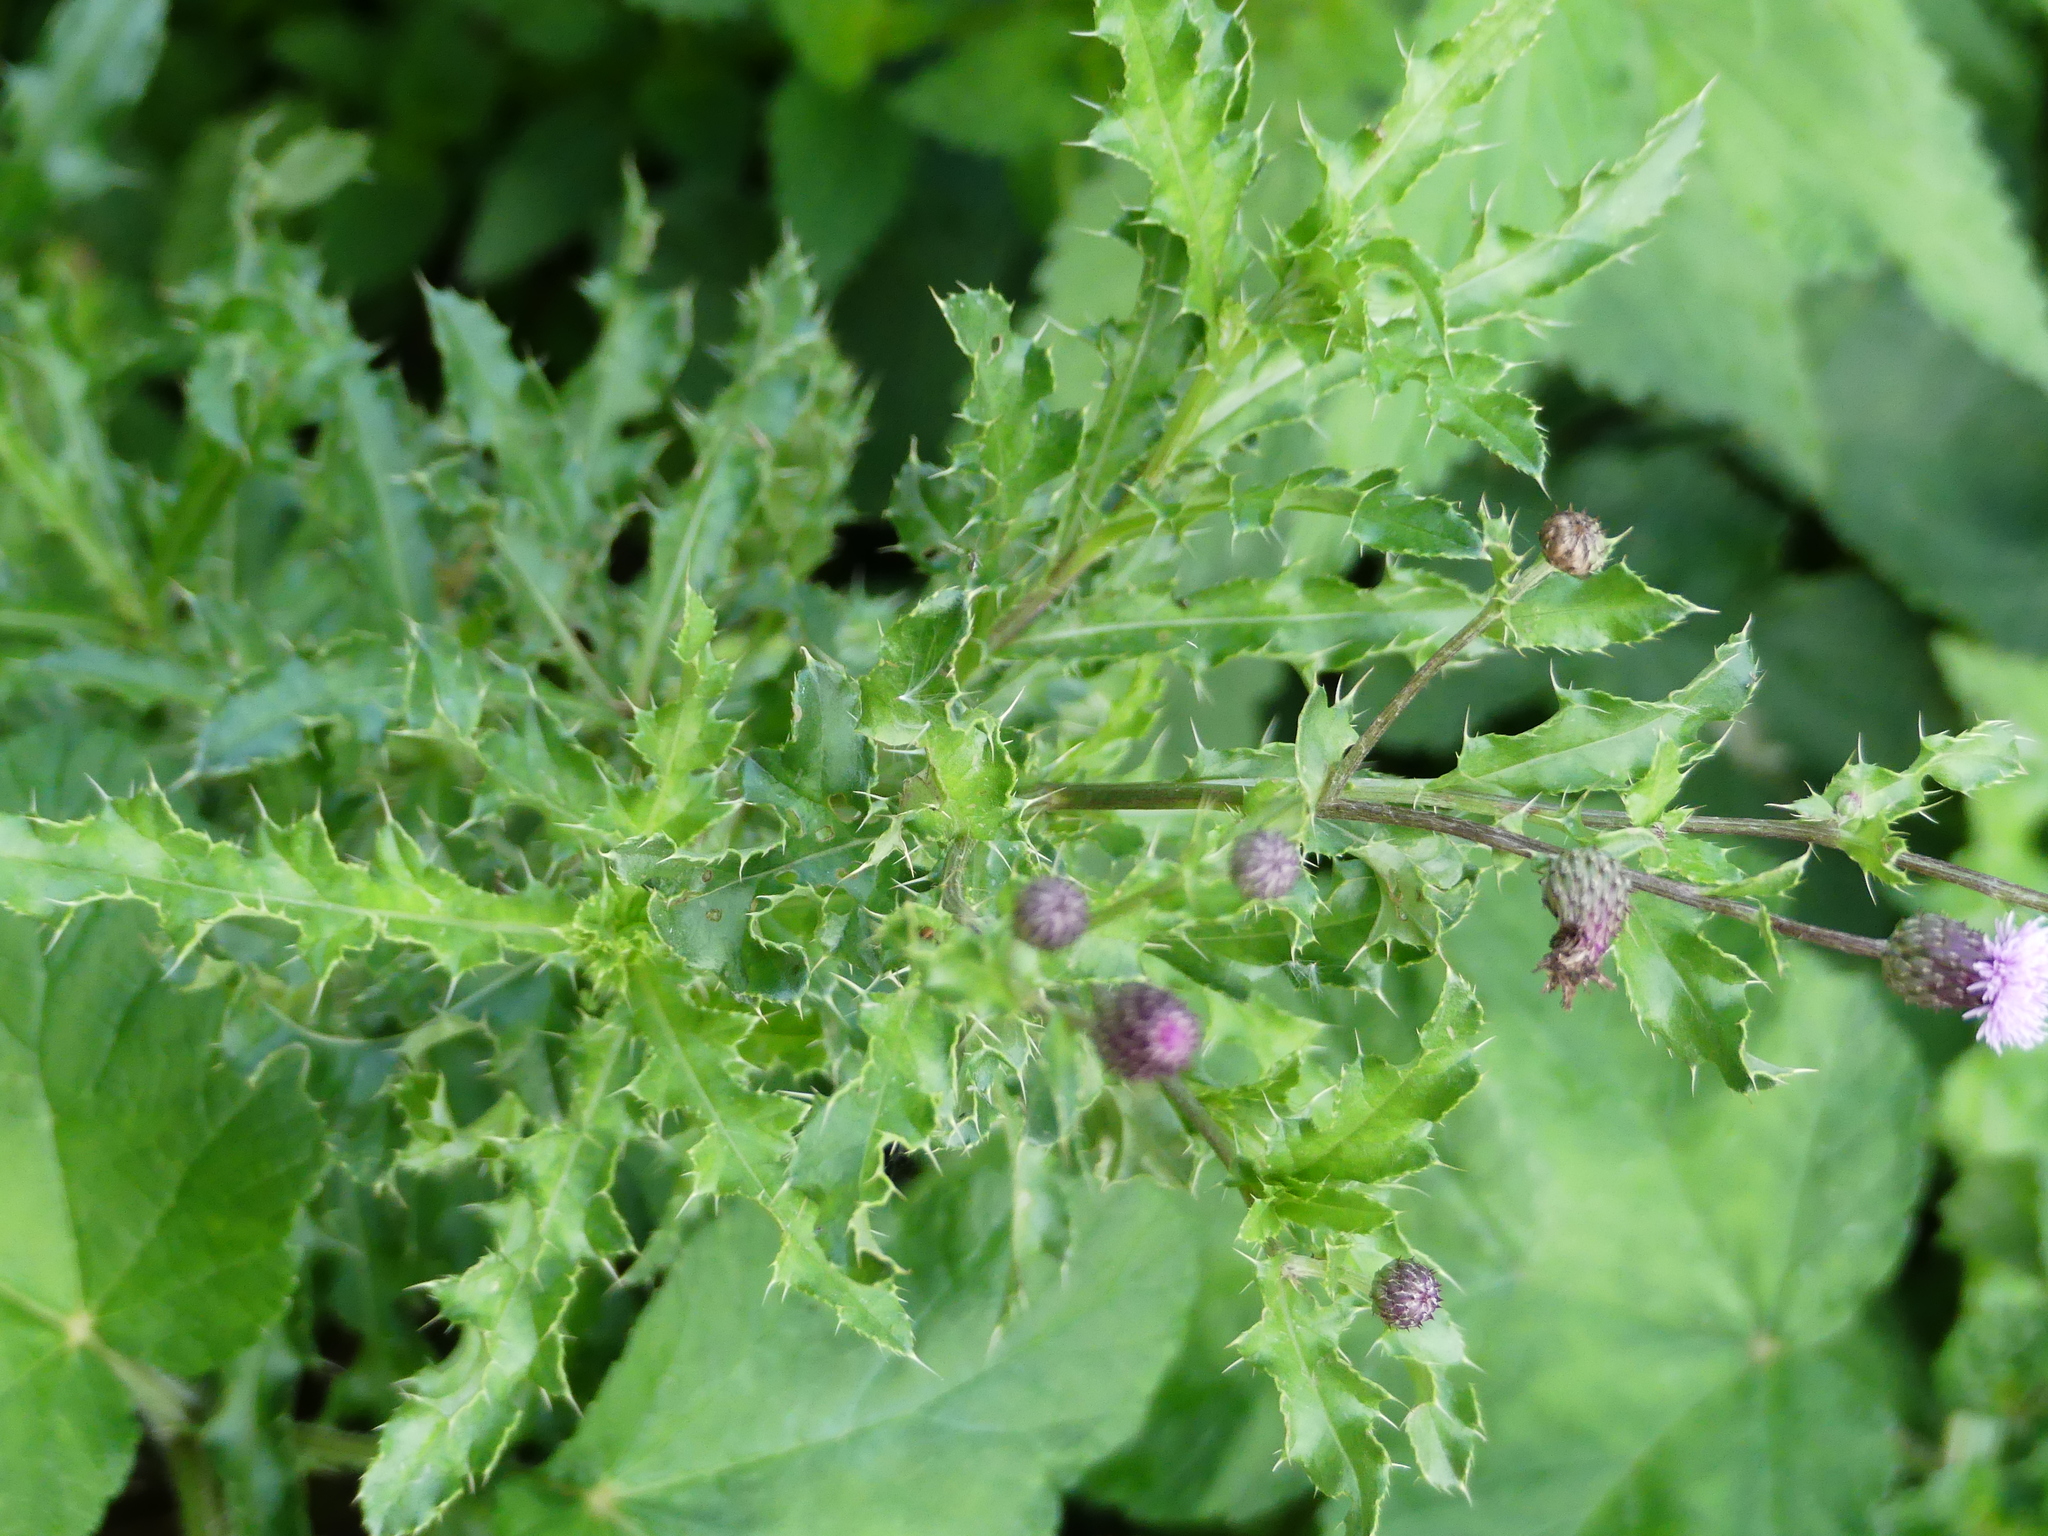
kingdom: Plantae
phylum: Tracheophyta
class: Magnoliopsida
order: Asterales
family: Asteraceae
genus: Cirsium
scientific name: Cirsium arvense
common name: Creeping thistle
